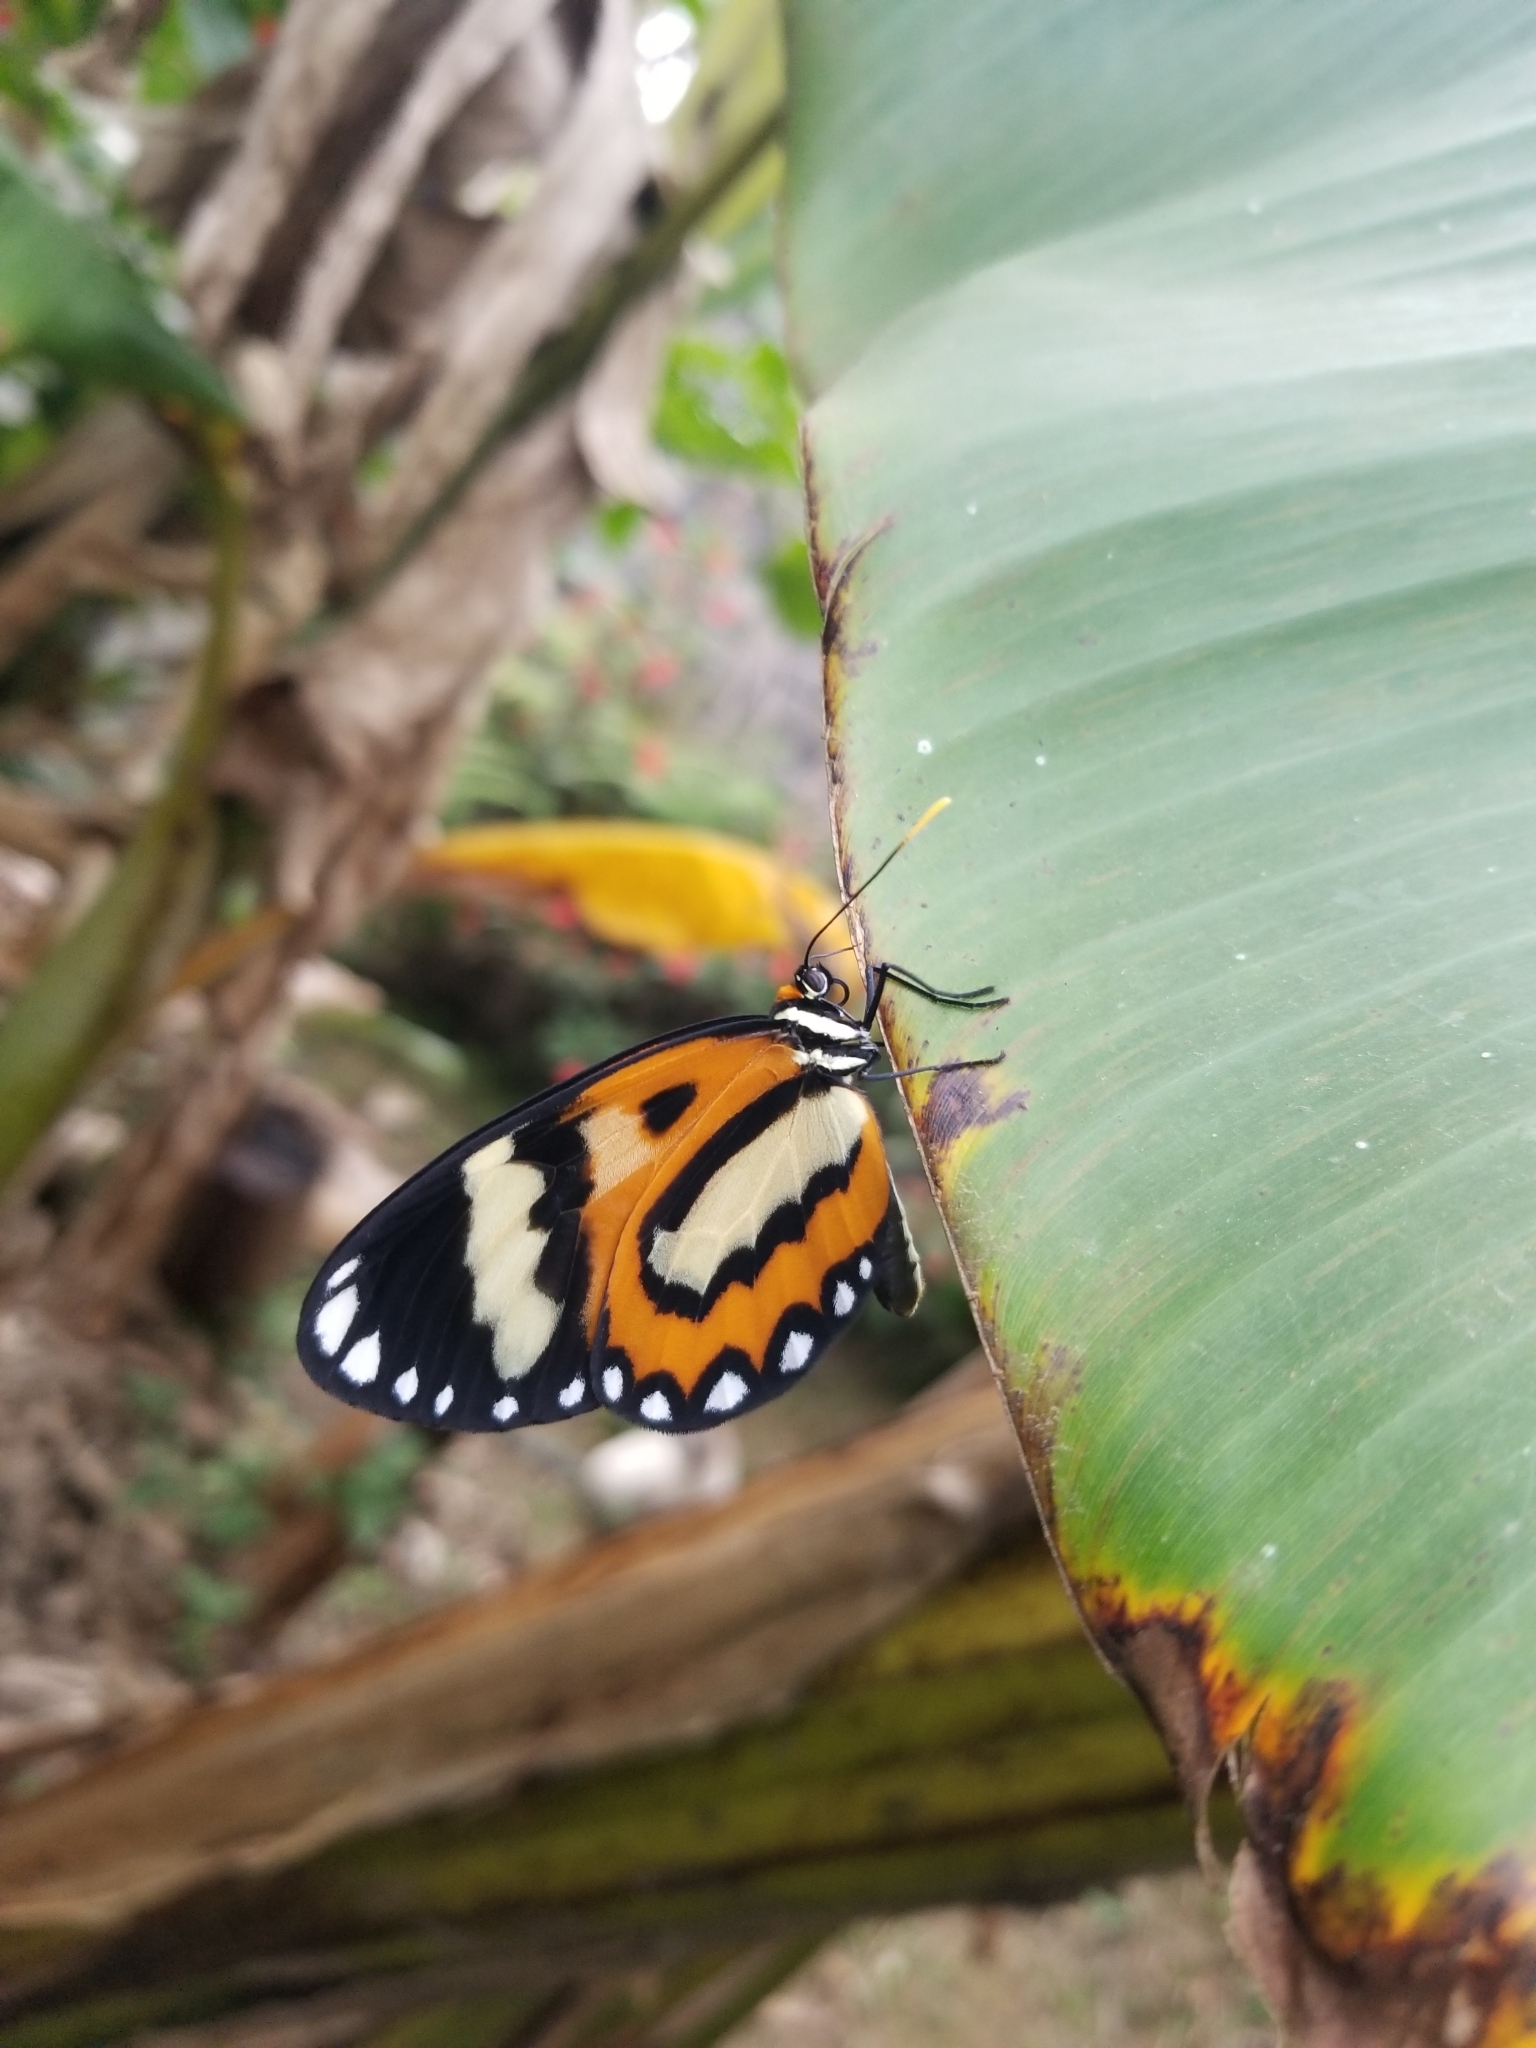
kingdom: Animalia
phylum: Arthropoda
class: Insecta
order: Lepidoptera
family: Nymphalidae
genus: Placidina
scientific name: Placidina euryanassa
